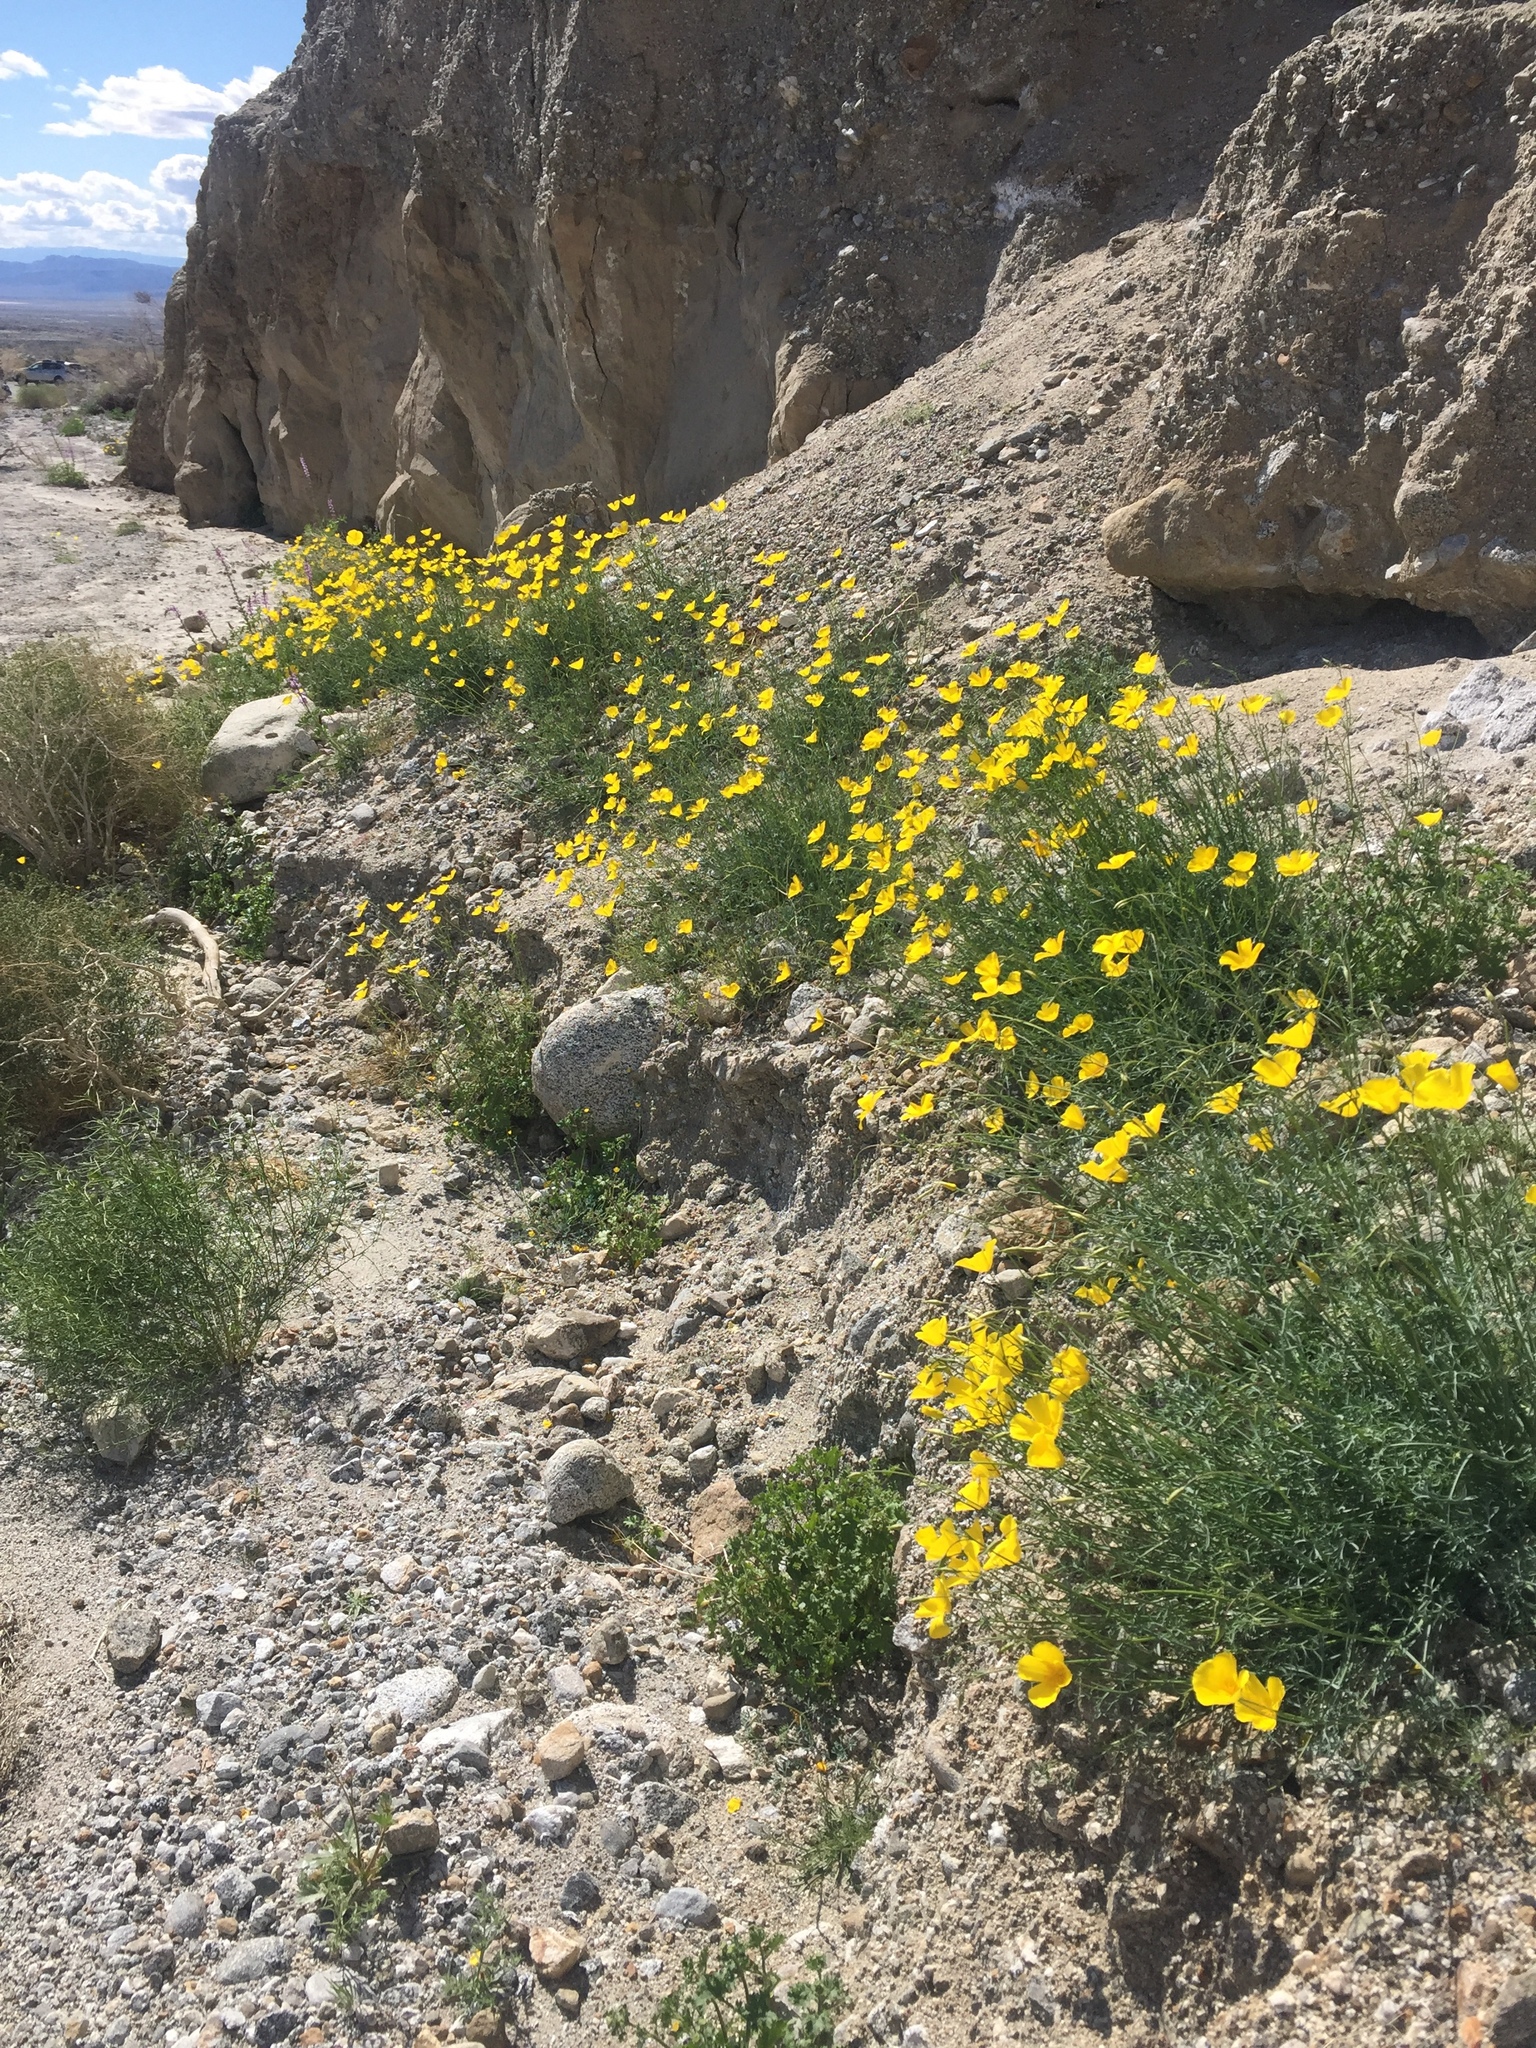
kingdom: Plantae
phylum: Tracheophyta
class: Magnoliopsida
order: Ranunculales
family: Papaveraceae
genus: Eschscholzia
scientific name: Eschscholzia parishii
